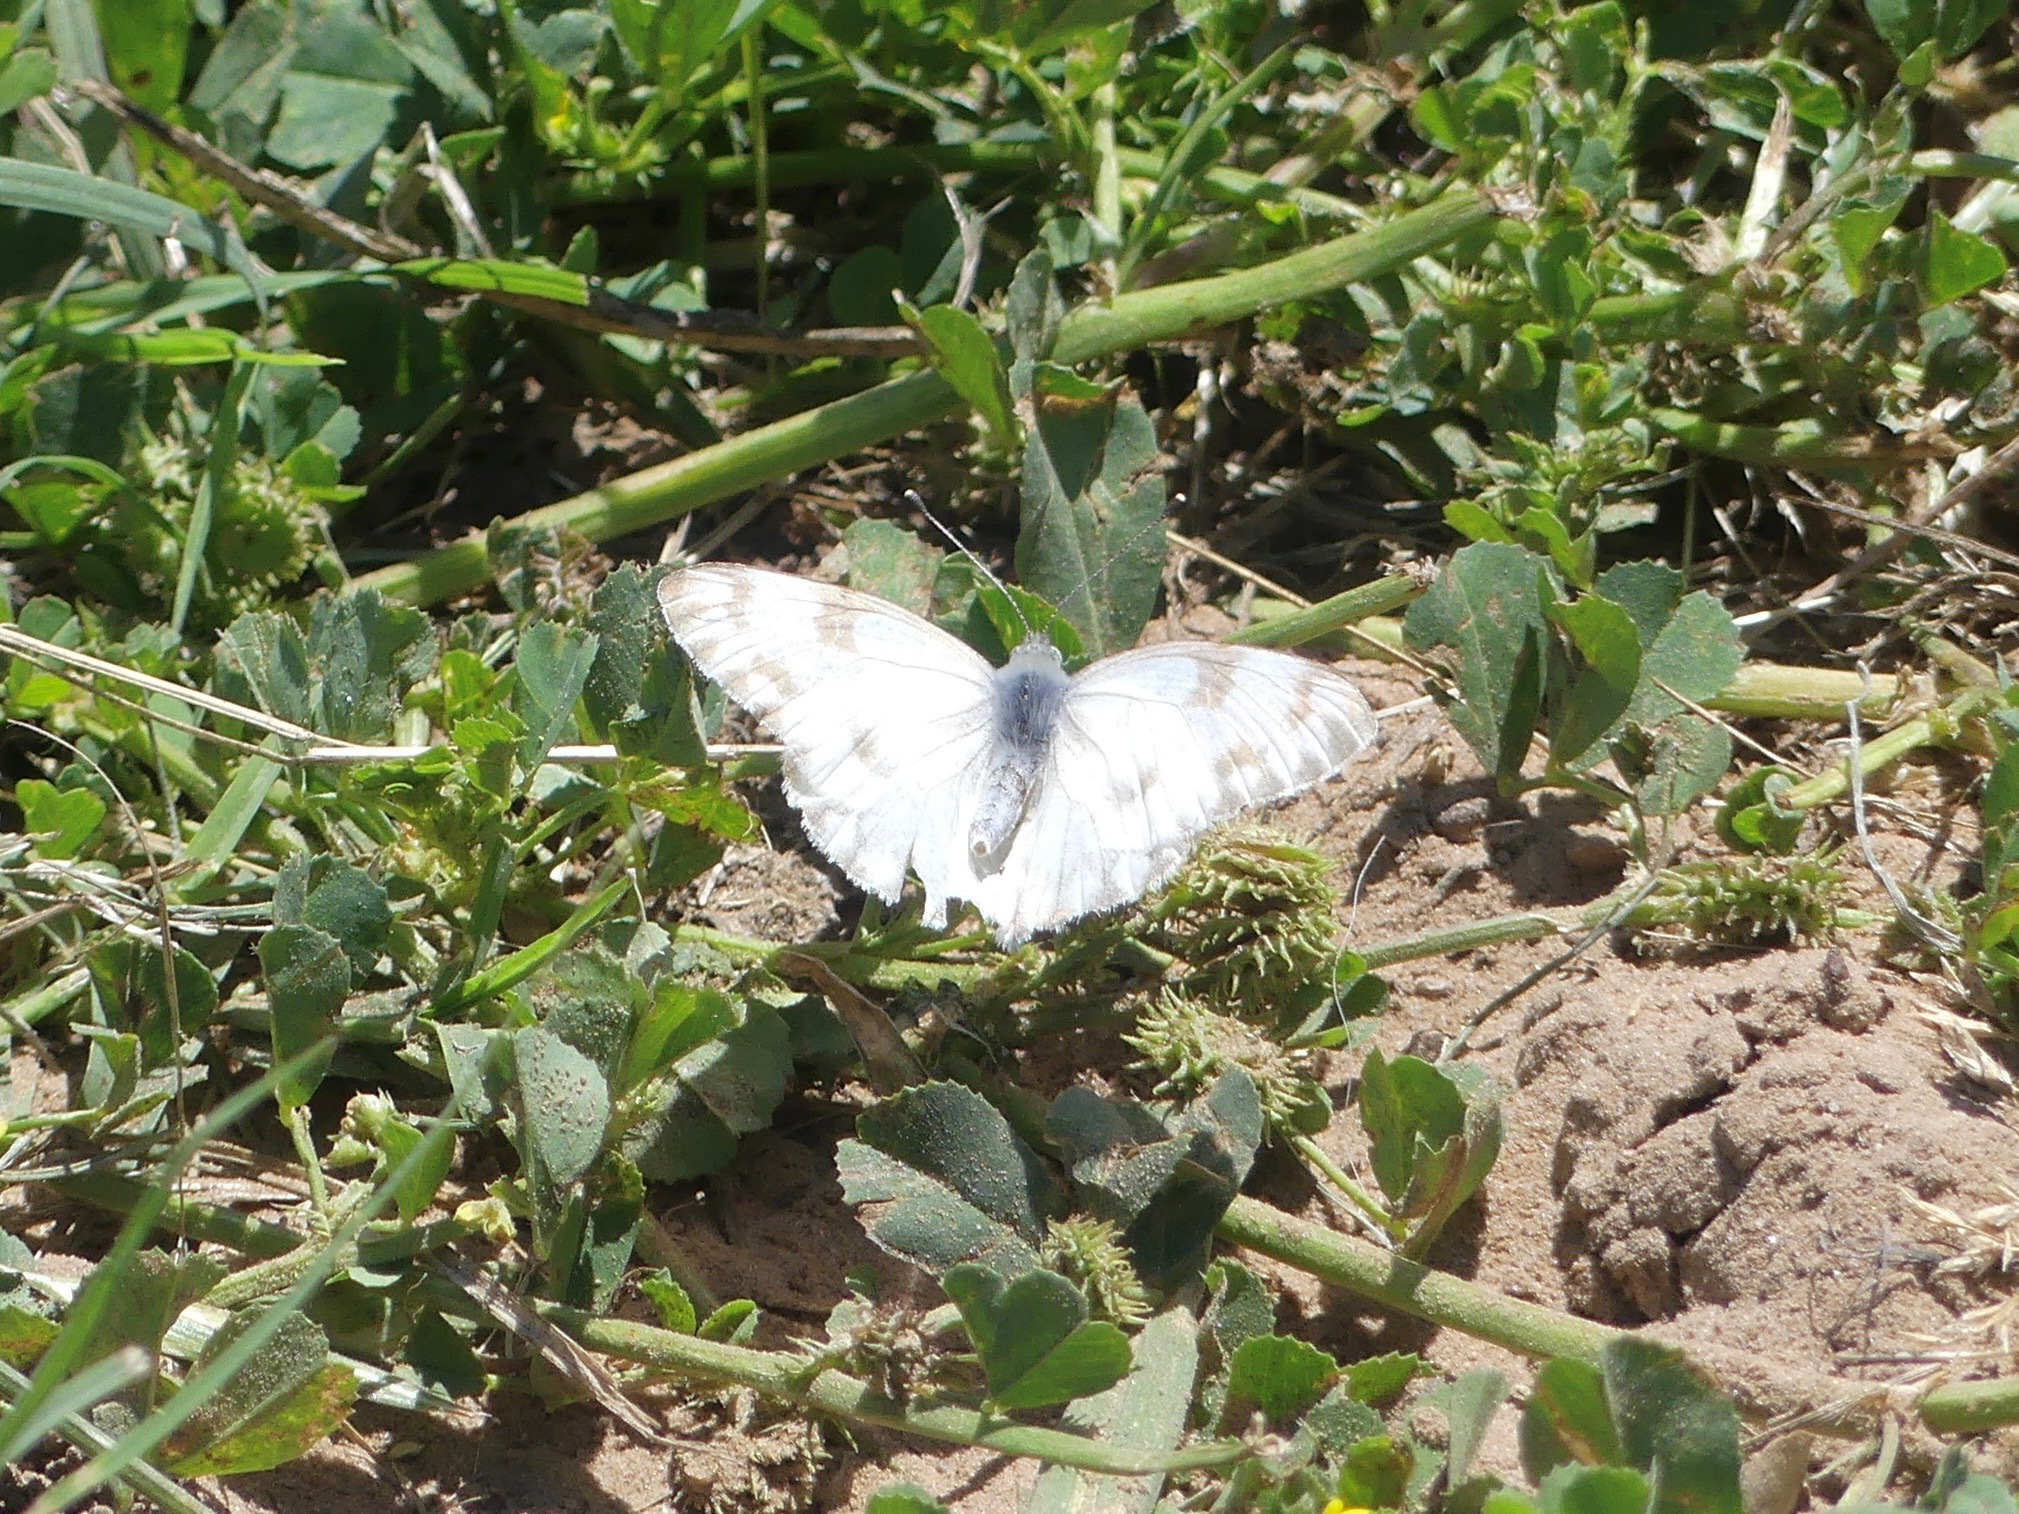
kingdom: Animalia
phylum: Arthropoda
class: Insecta
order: Lepidoptera
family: Pieridae
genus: Pontia
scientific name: Pontia protodice
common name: Checkered white
